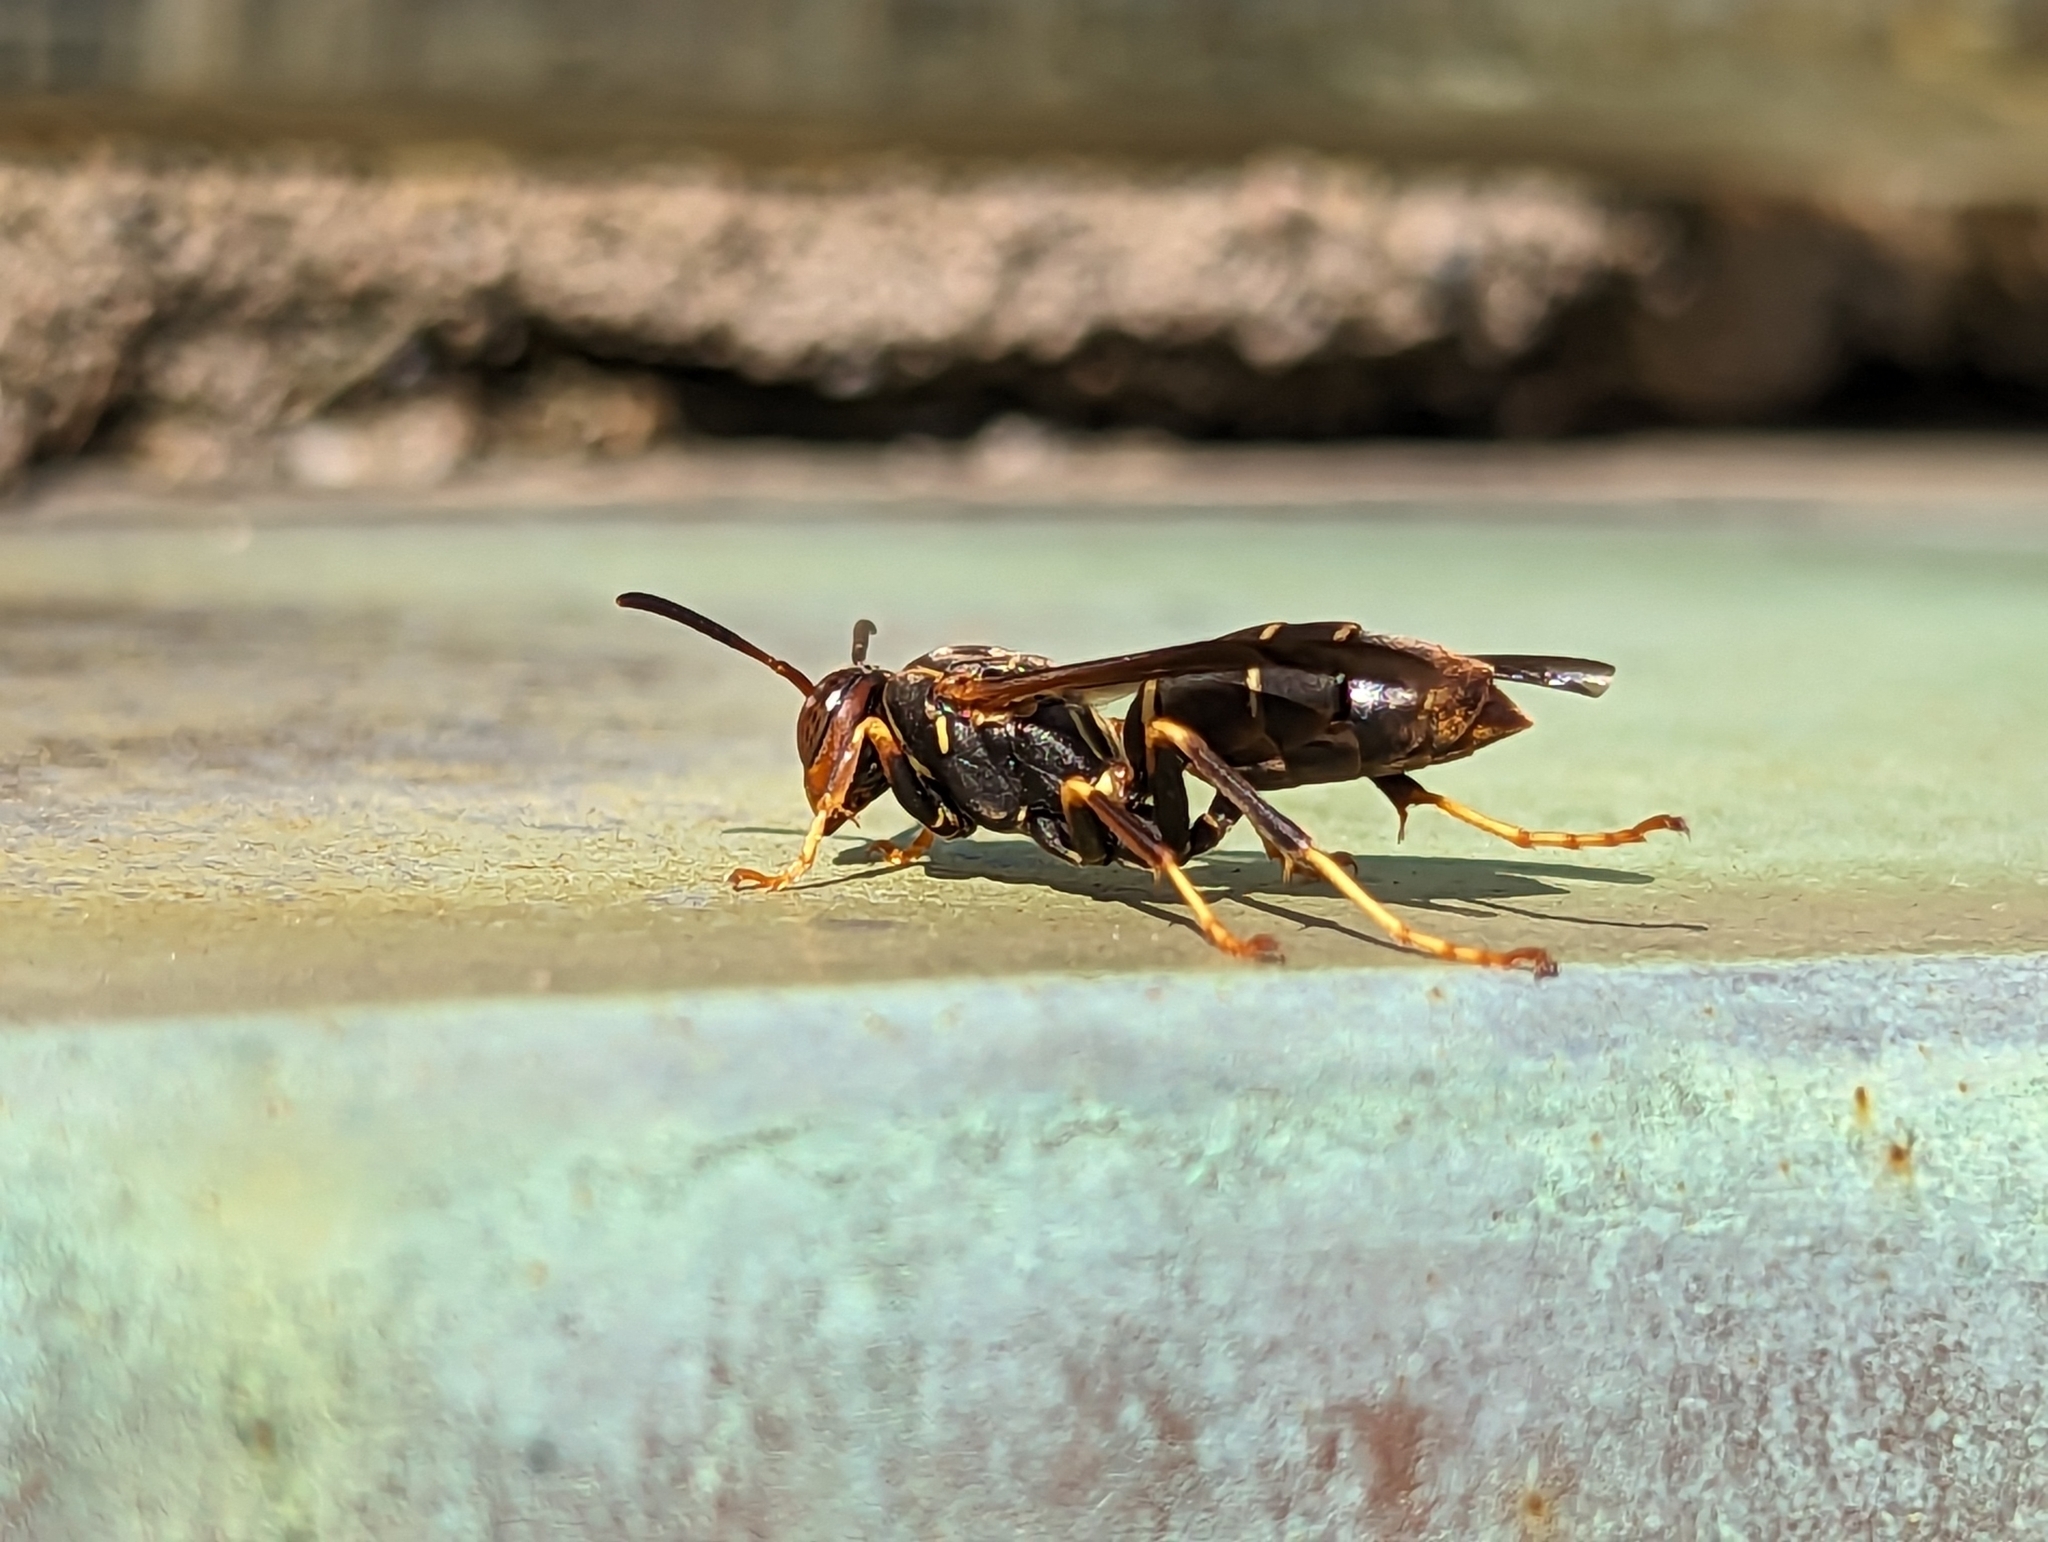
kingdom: Animalia
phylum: Arthropoda
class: Insecta
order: Hymenoptera
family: Eumenidae
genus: Polistes
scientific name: Polistes fuscatus
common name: Dark paper wasp
